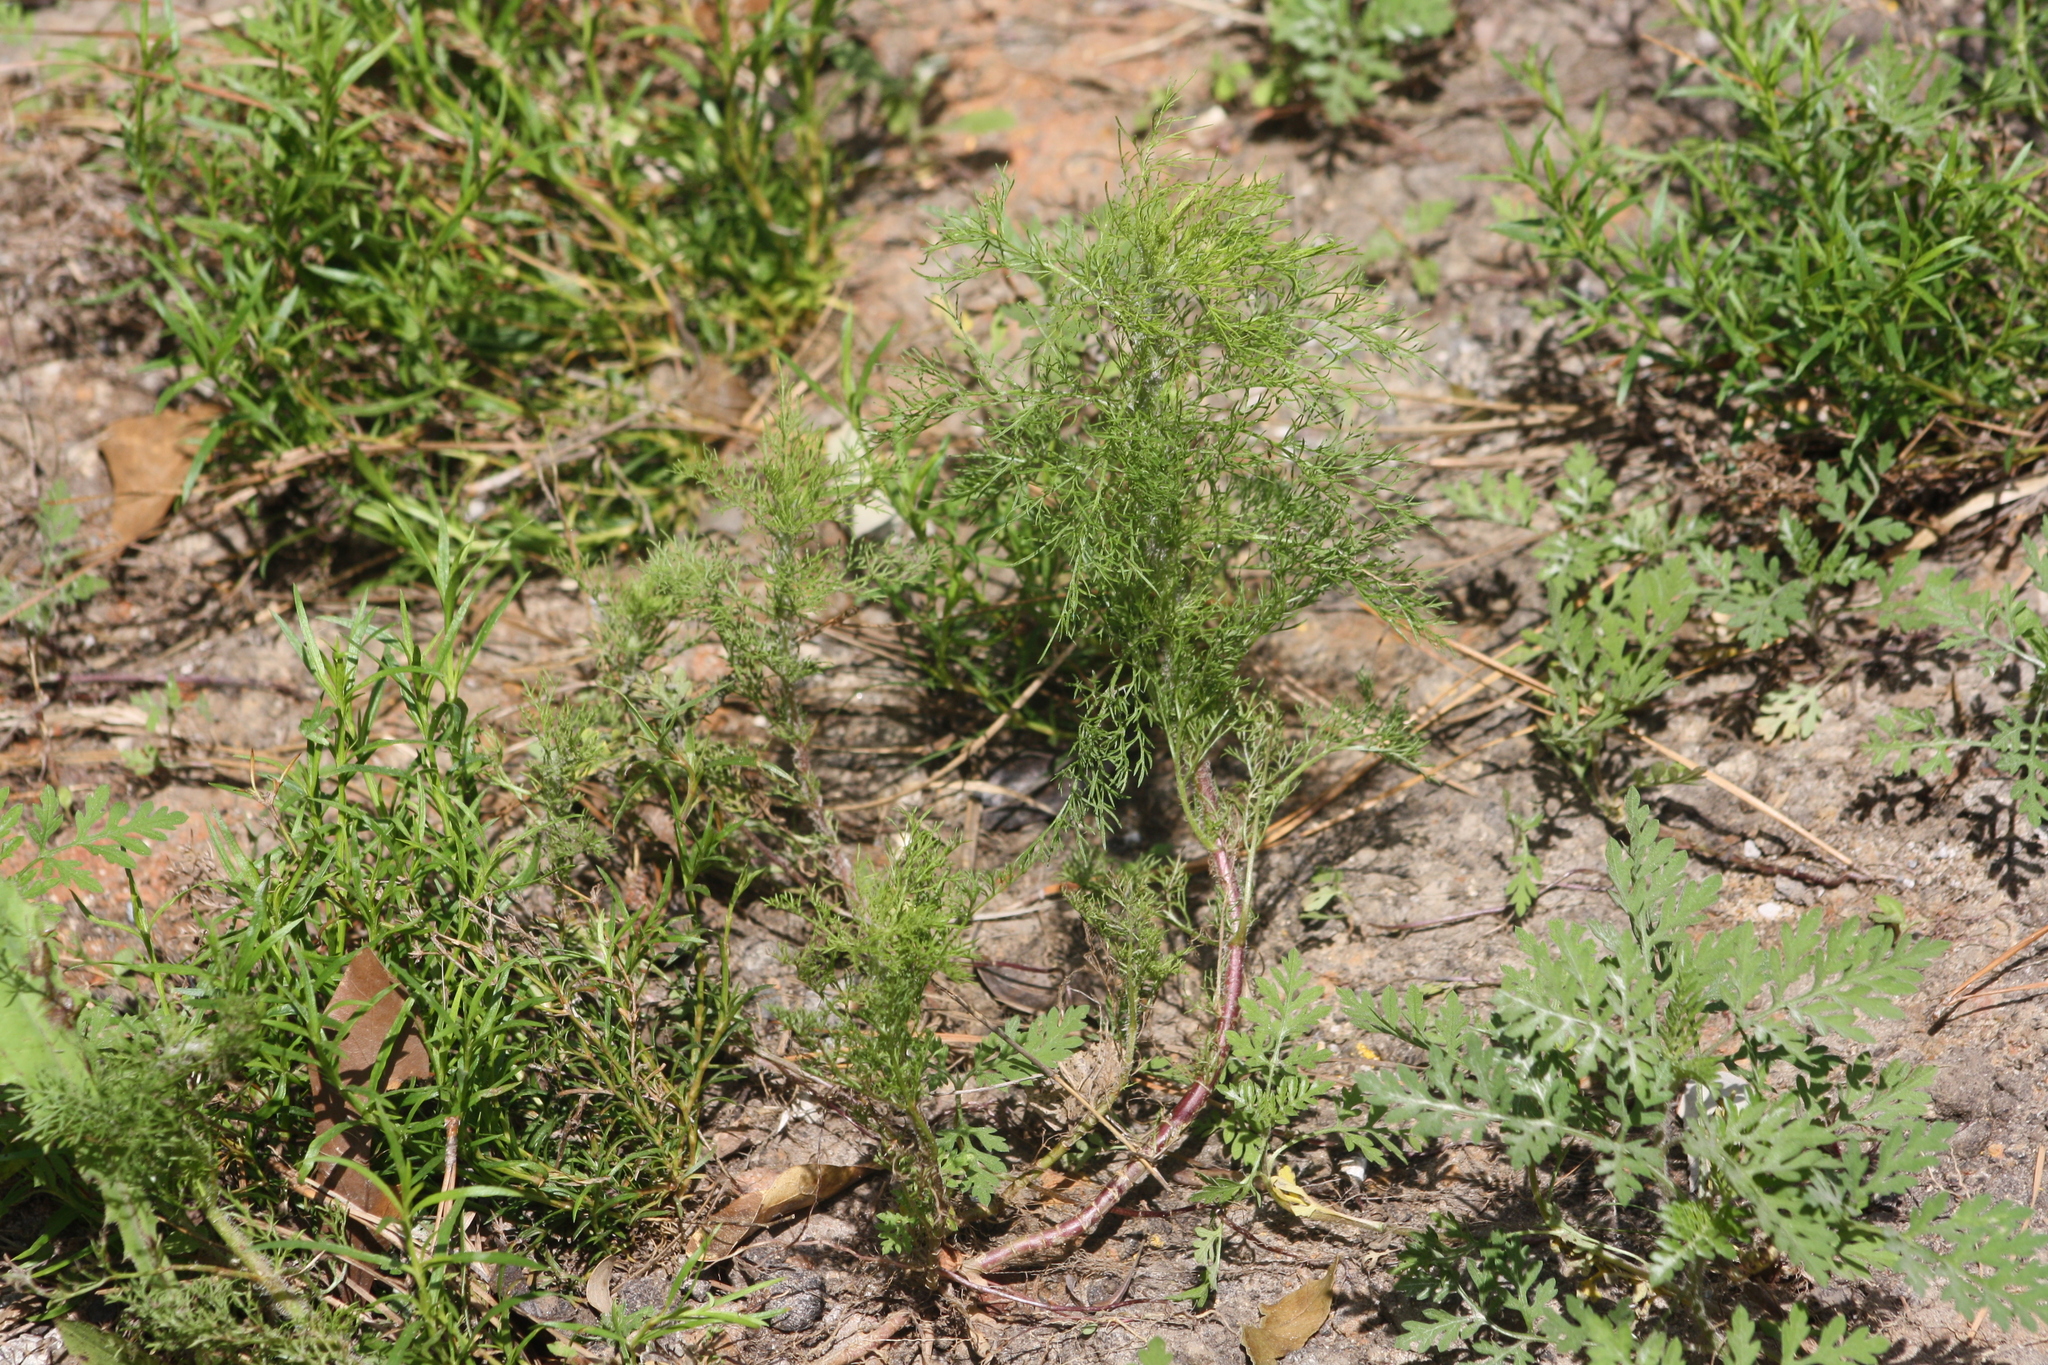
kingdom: Plantae
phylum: Tracheophyta
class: Magnoliopsida
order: Asterales
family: Asteraceae
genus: Eupatorium
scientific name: Eupatorium capillifolium
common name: Dog-fennel
